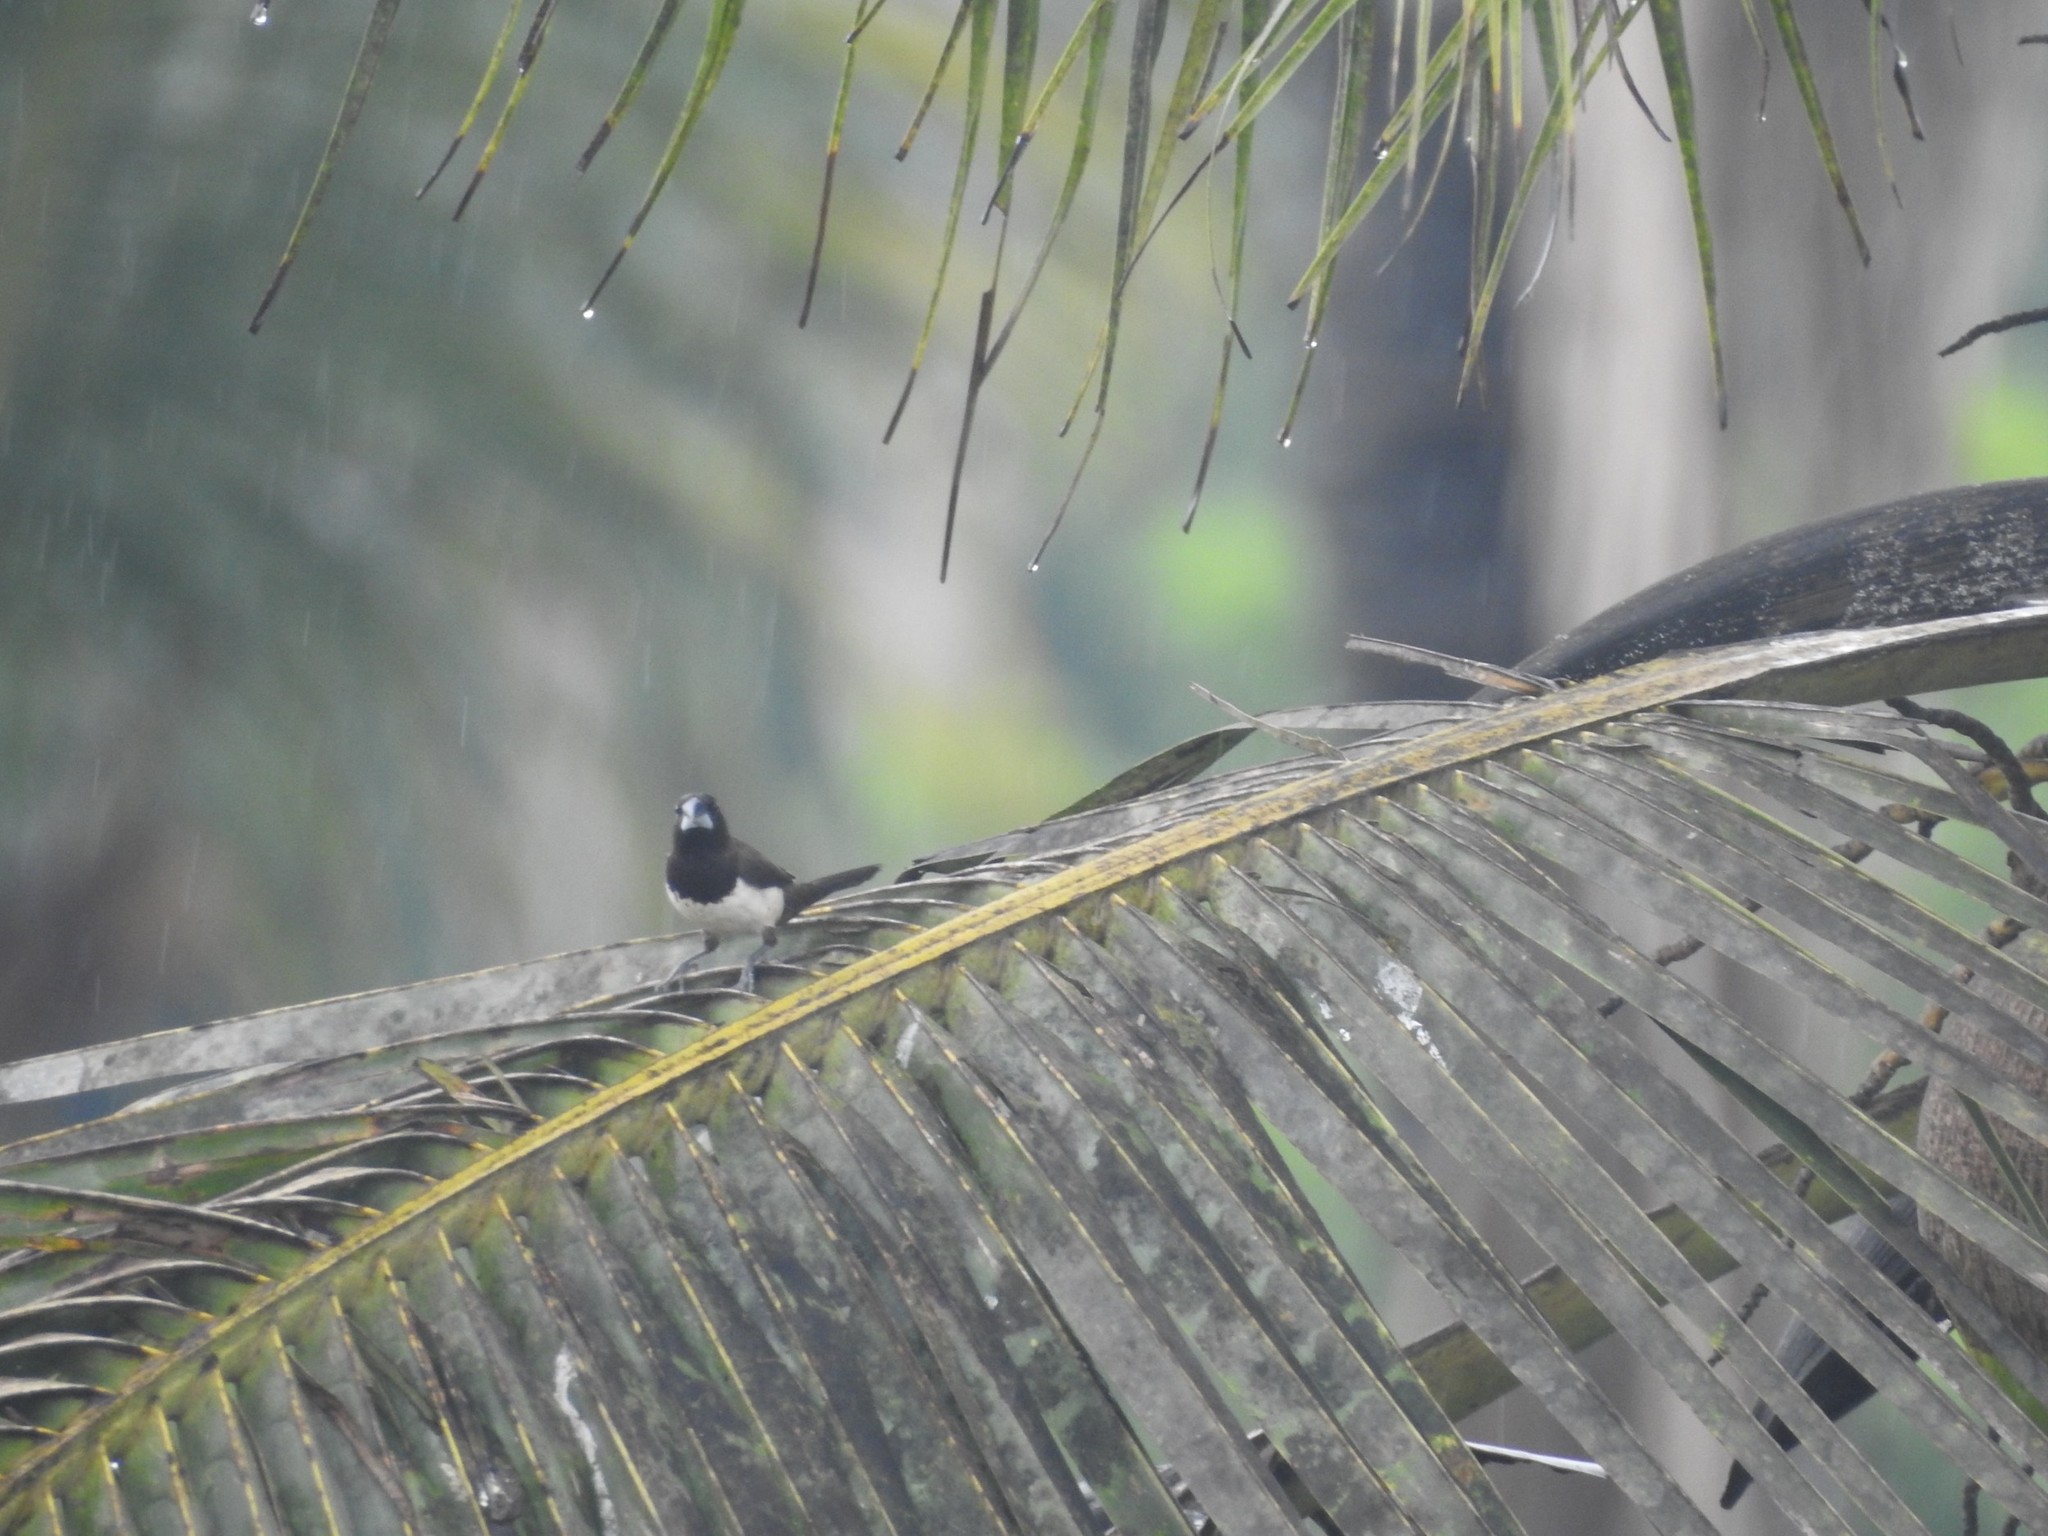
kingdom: Animalia
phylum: Chordata
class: Aves
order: Passeriformes
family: Estrildidae
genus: Lonchura
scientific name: Lonchura striata
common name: White-rumped munia
